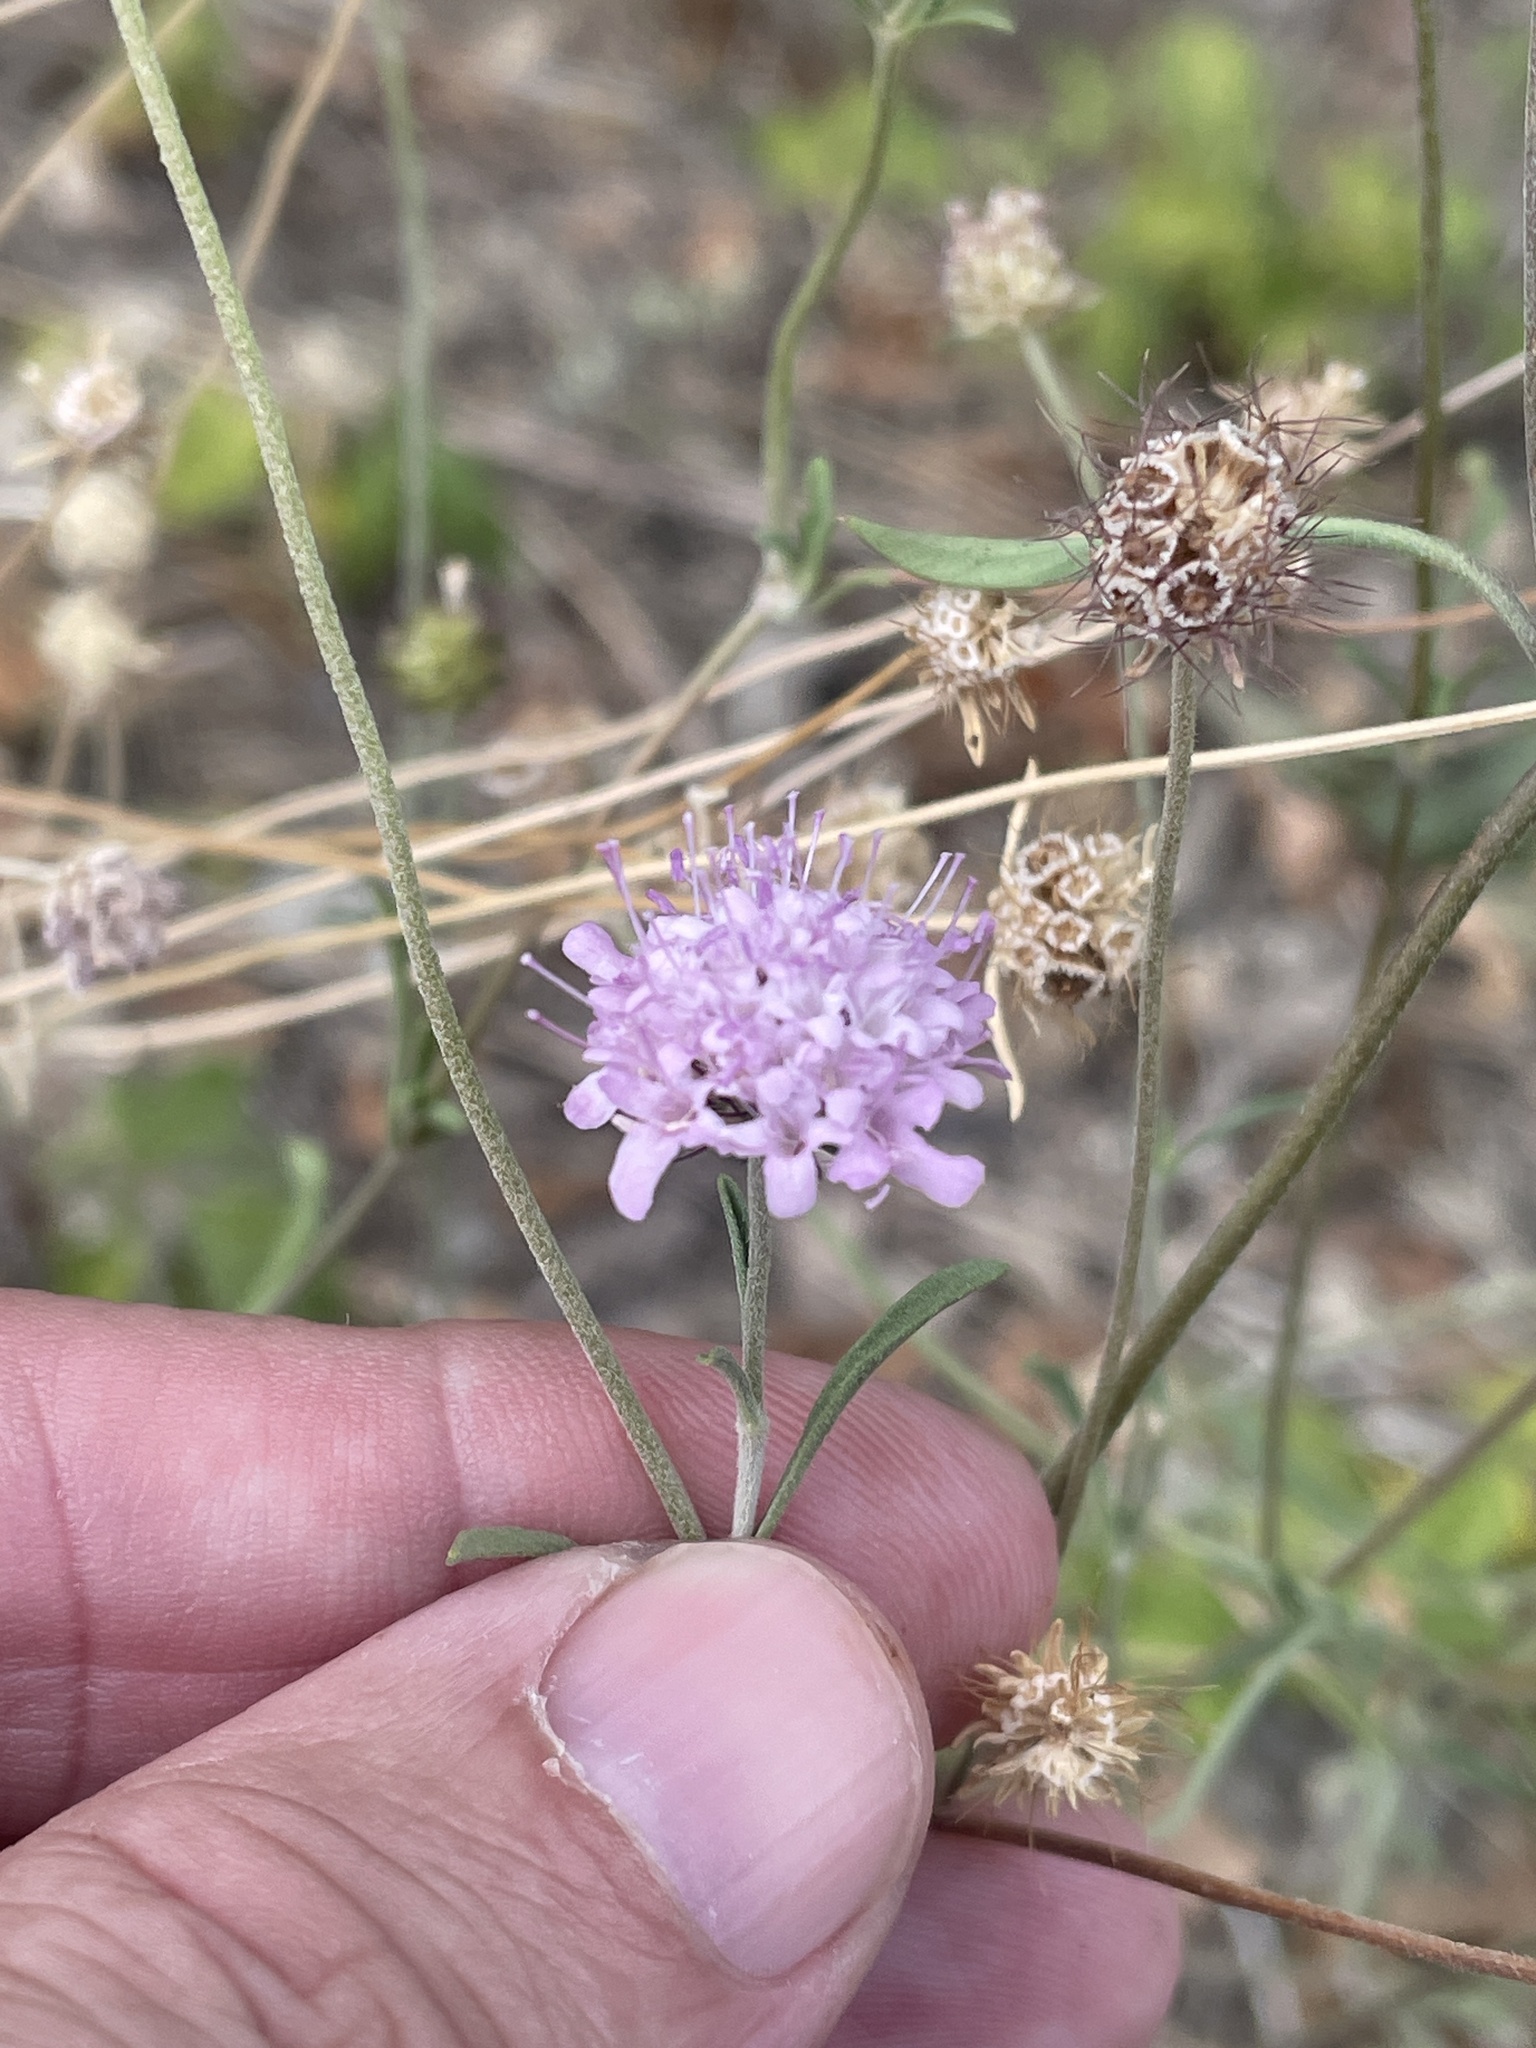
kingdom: Plantae
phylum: Tracheophyta
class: Magnoliopsida
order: Dipsacales
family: Caprifoliaceae
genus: Sixalix
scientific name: Sixalix atropurpurea
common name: Sweet scabious
